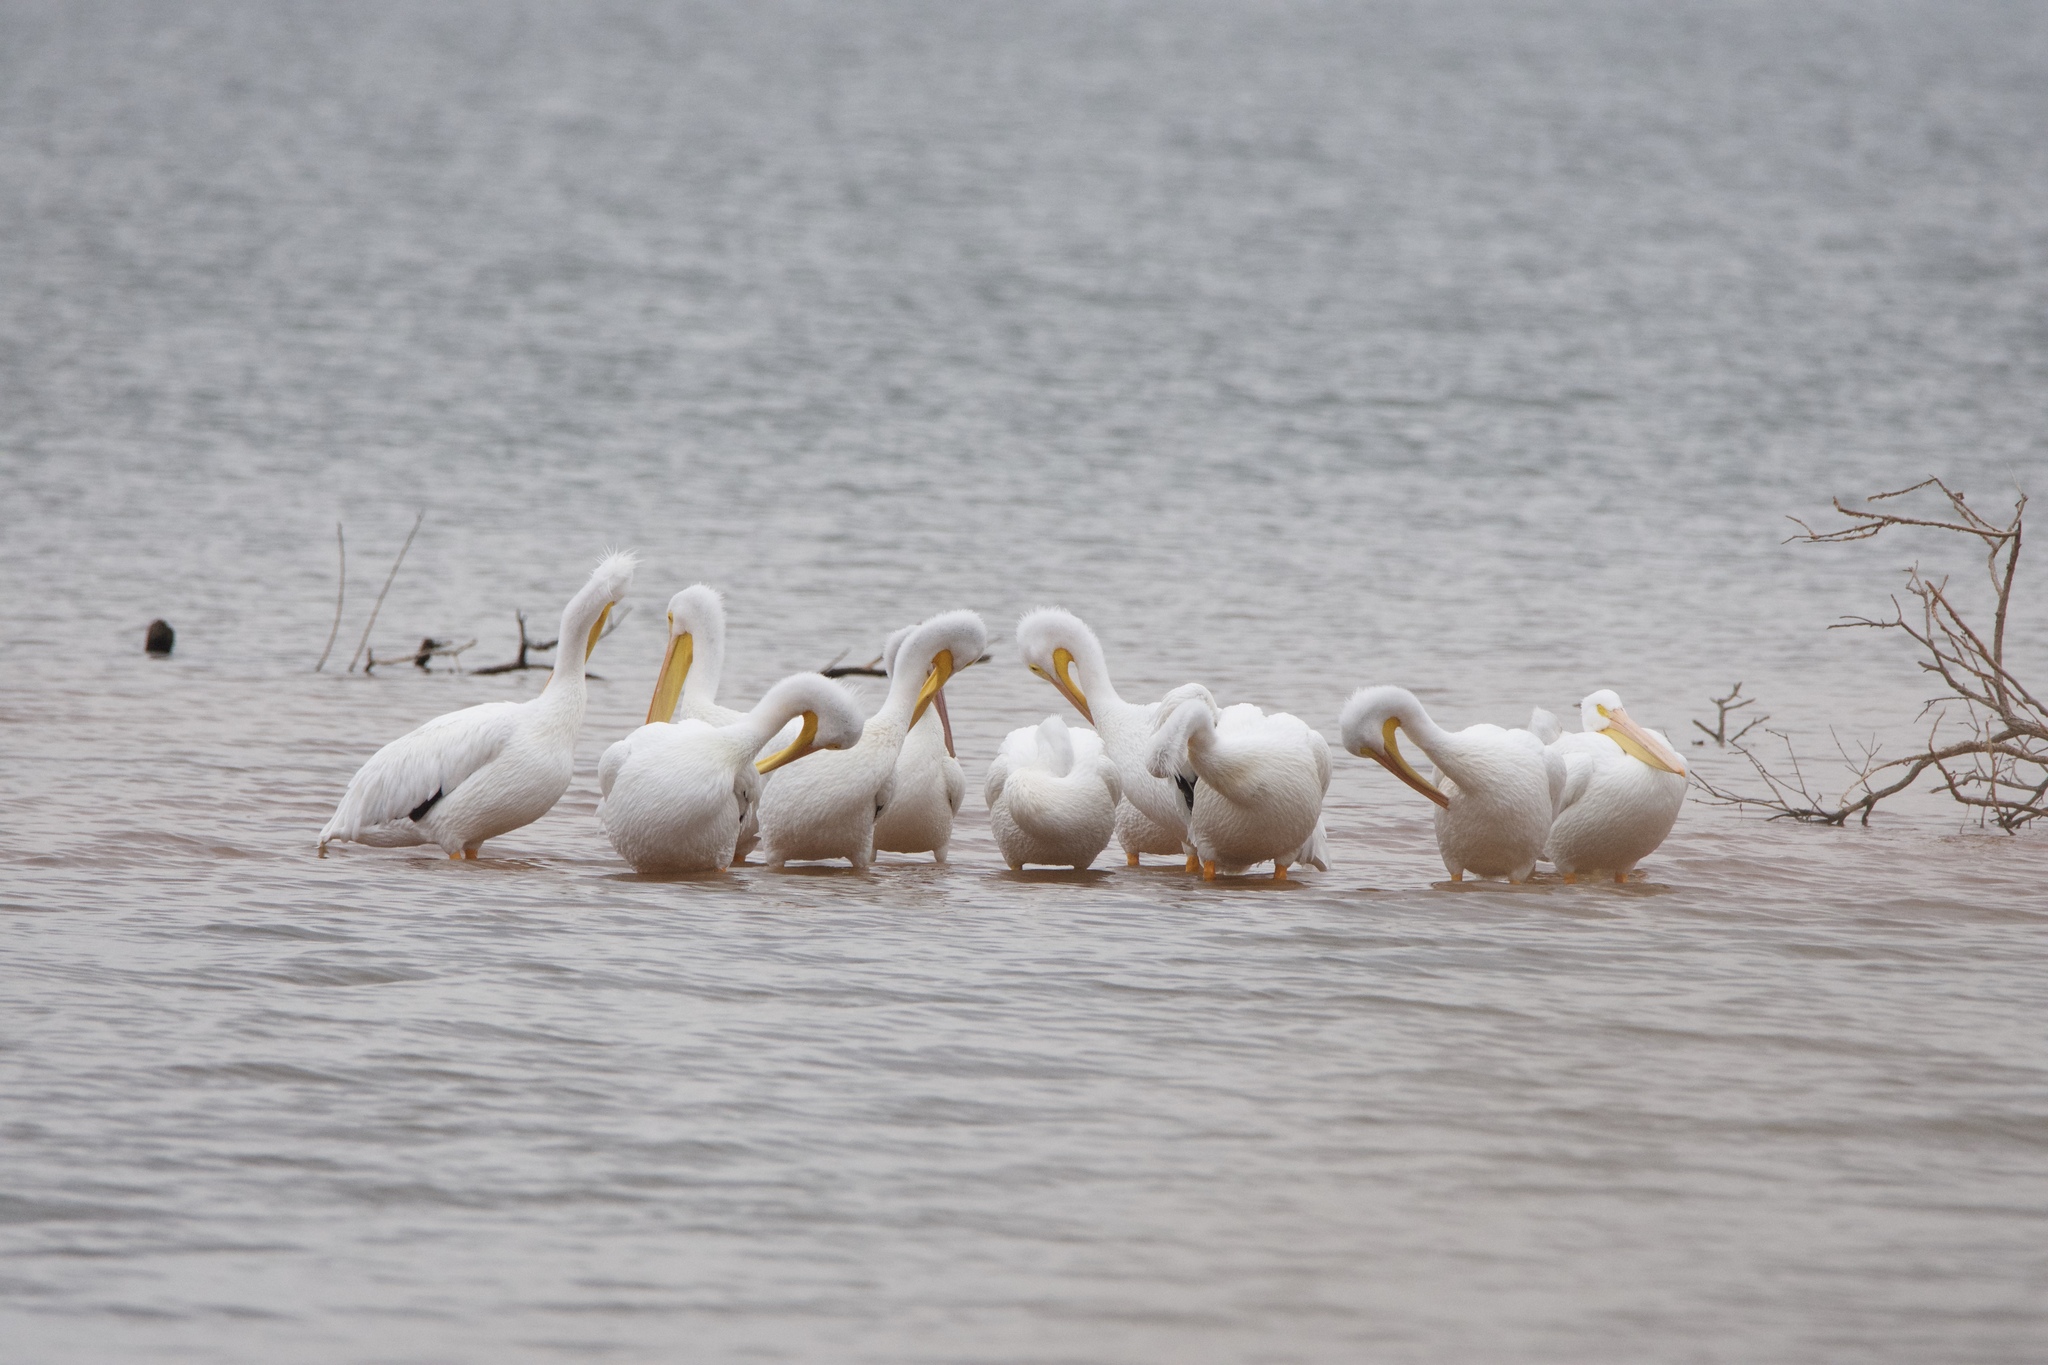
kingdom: Animalia
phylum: Chordata
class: Aves
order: Pelecaniformes
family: Pelecanidae
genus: Pelecanus
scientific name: Pelecanus erythrorhynchos
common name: American white pelican
